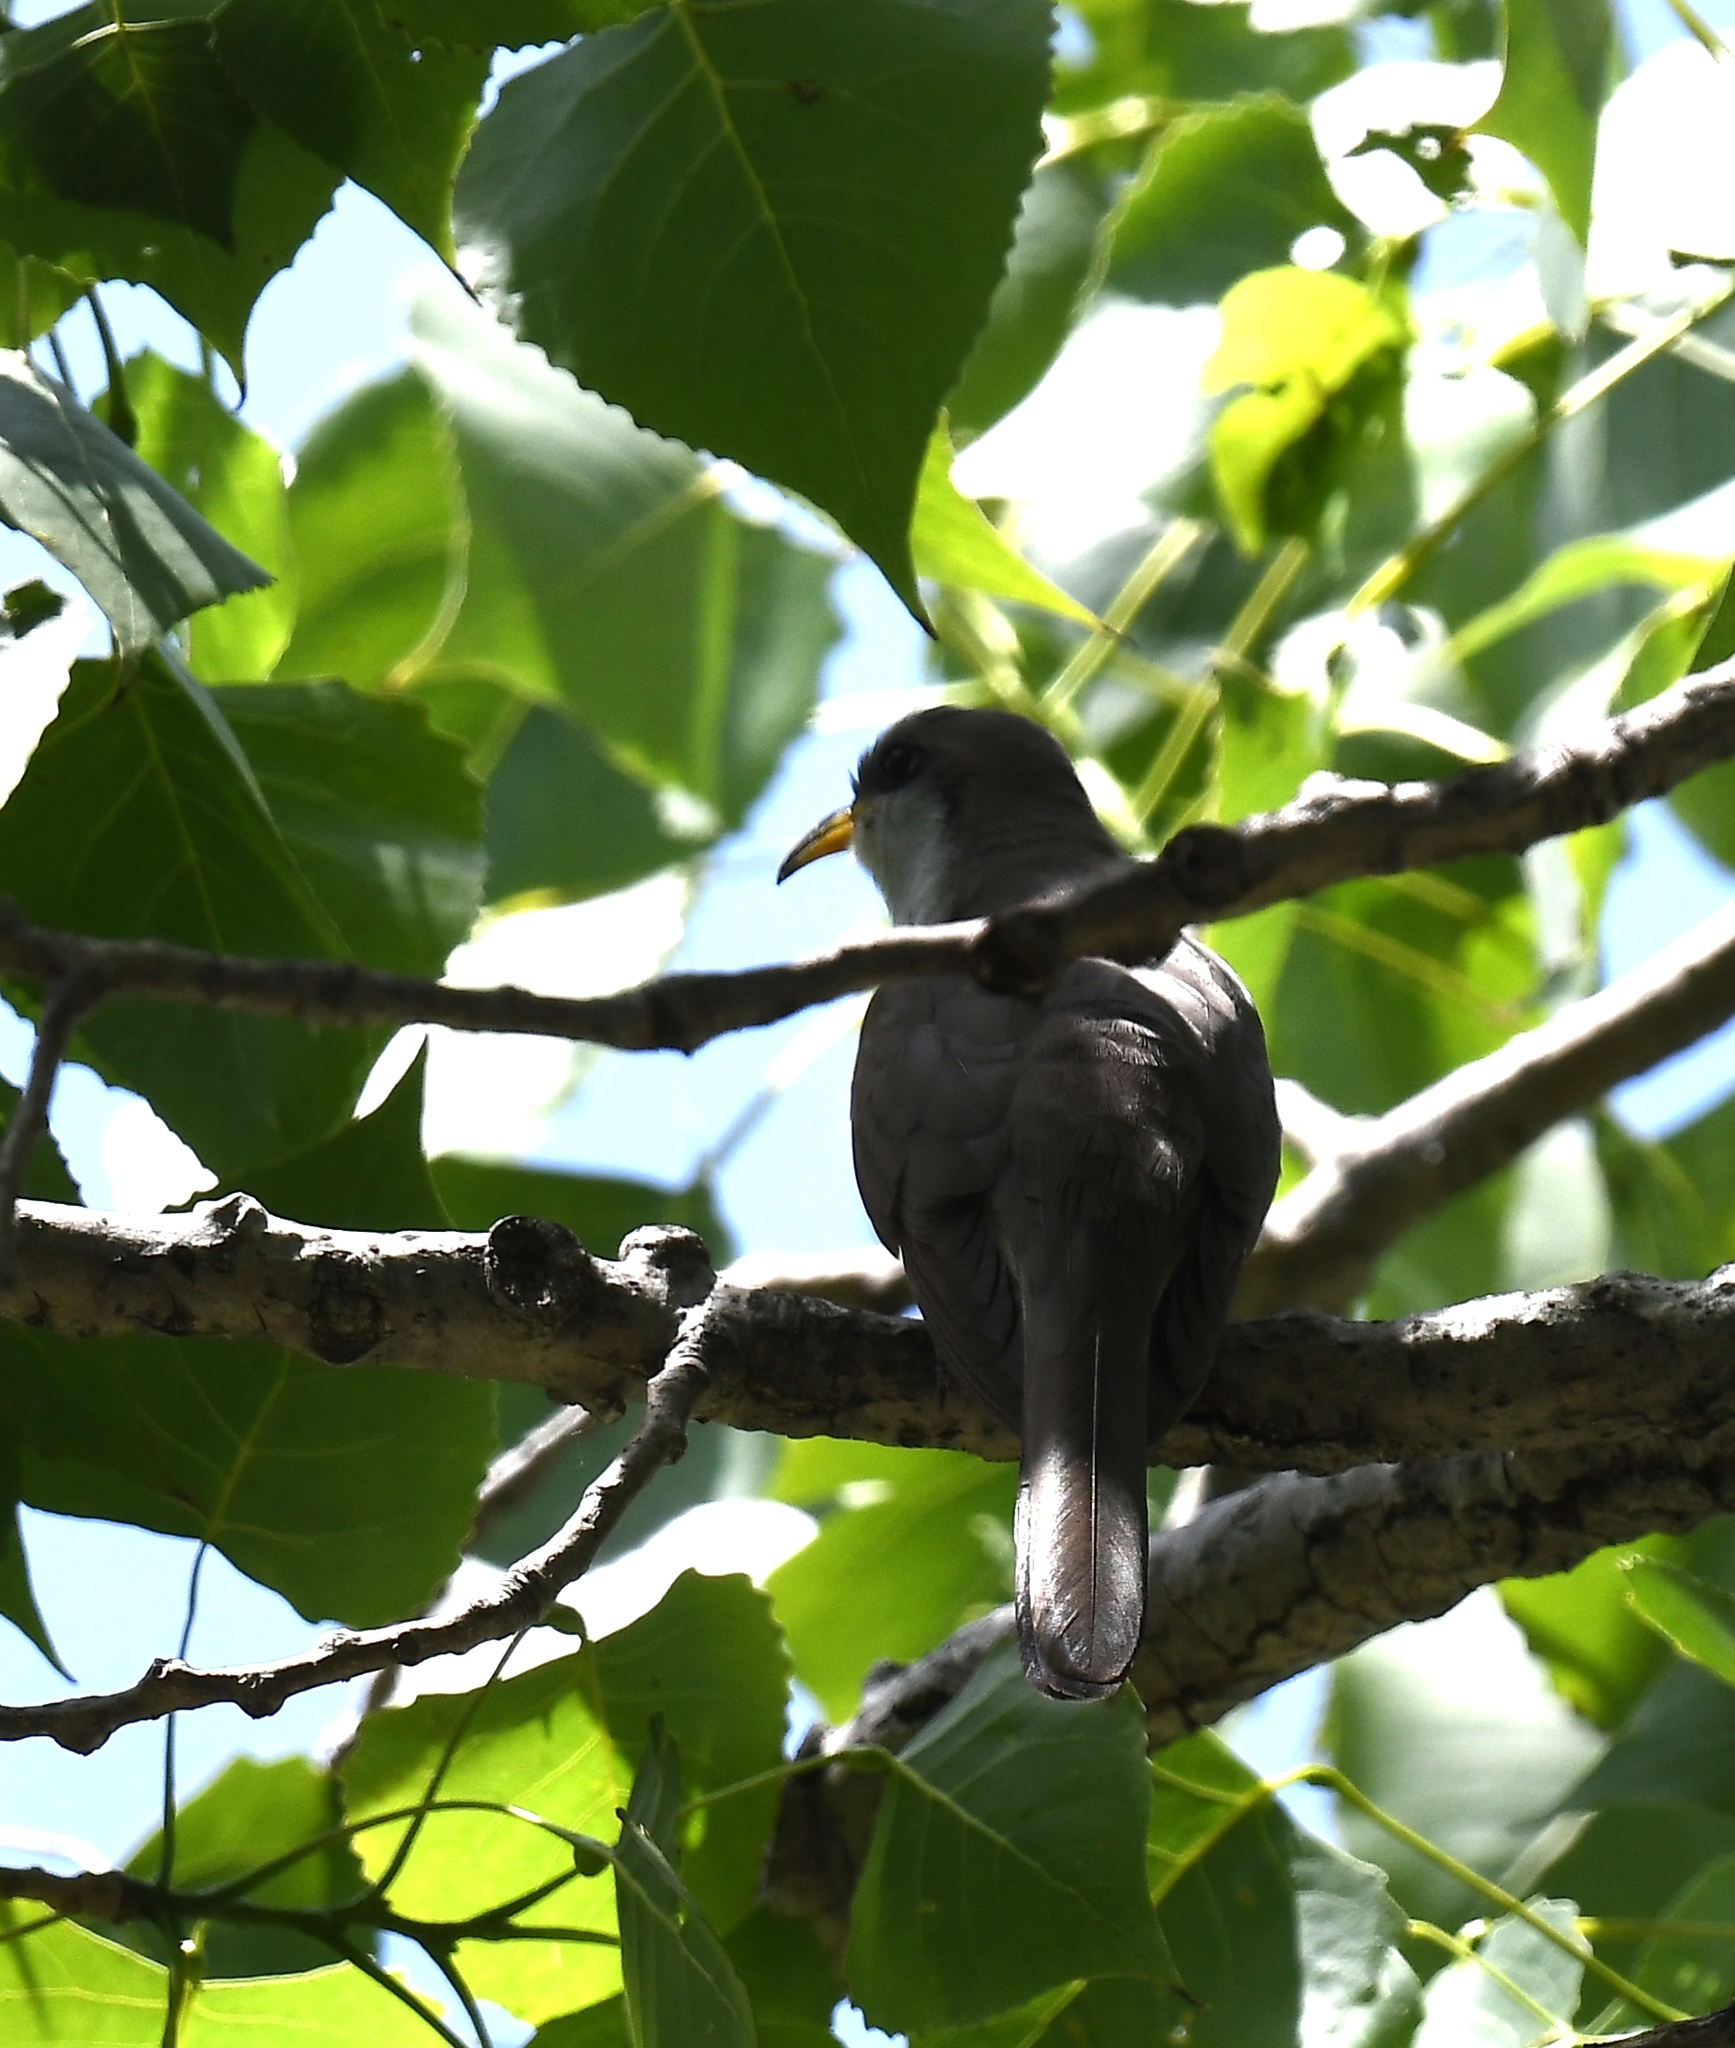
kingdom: Animalia
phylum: Chordata
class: Aves
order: Cuculiformes
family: Cuculidae
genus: Coccyzus
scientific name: Coccyzus americanus
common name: Yellow-billed cuckoo
